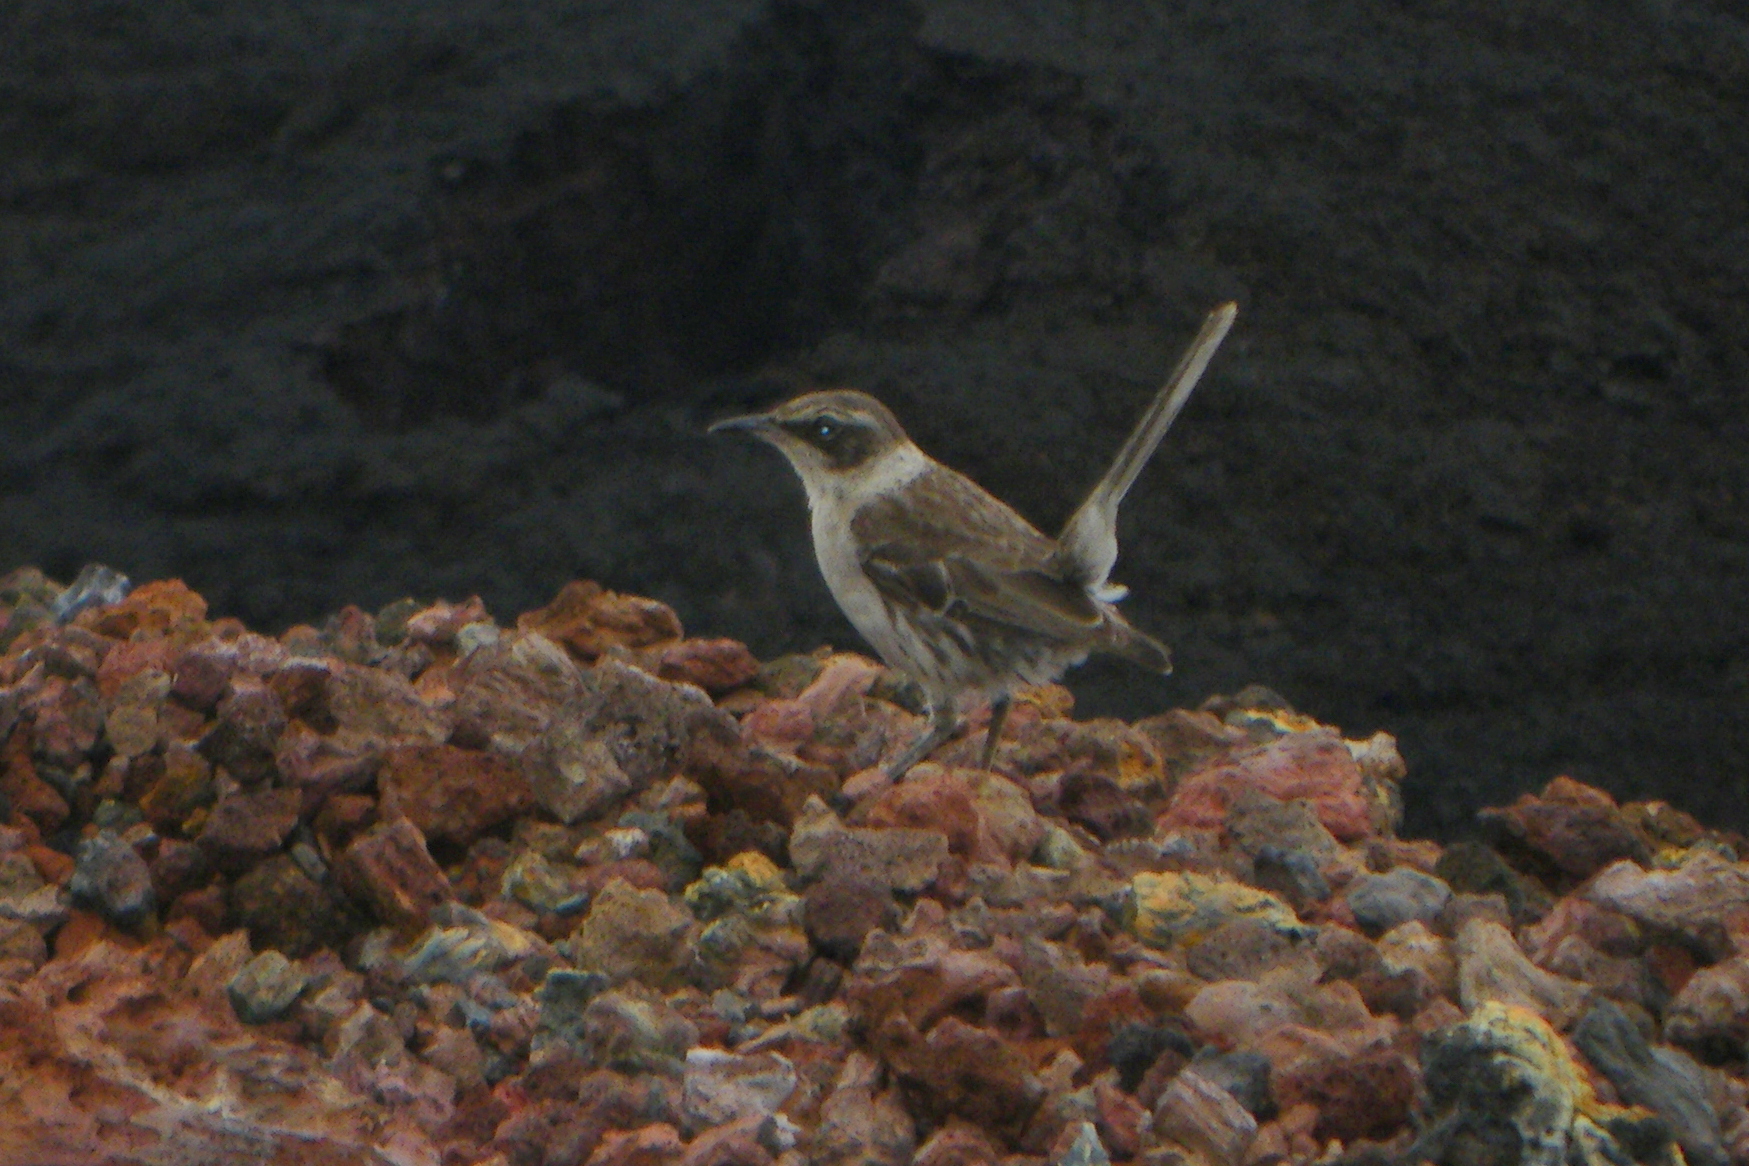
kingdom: Animalia
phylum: Chordata
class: Aves
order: Passeriformes
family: Mimidae
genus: Mimus
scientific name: Mimus parvulus
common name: Galapagos mockingbird
